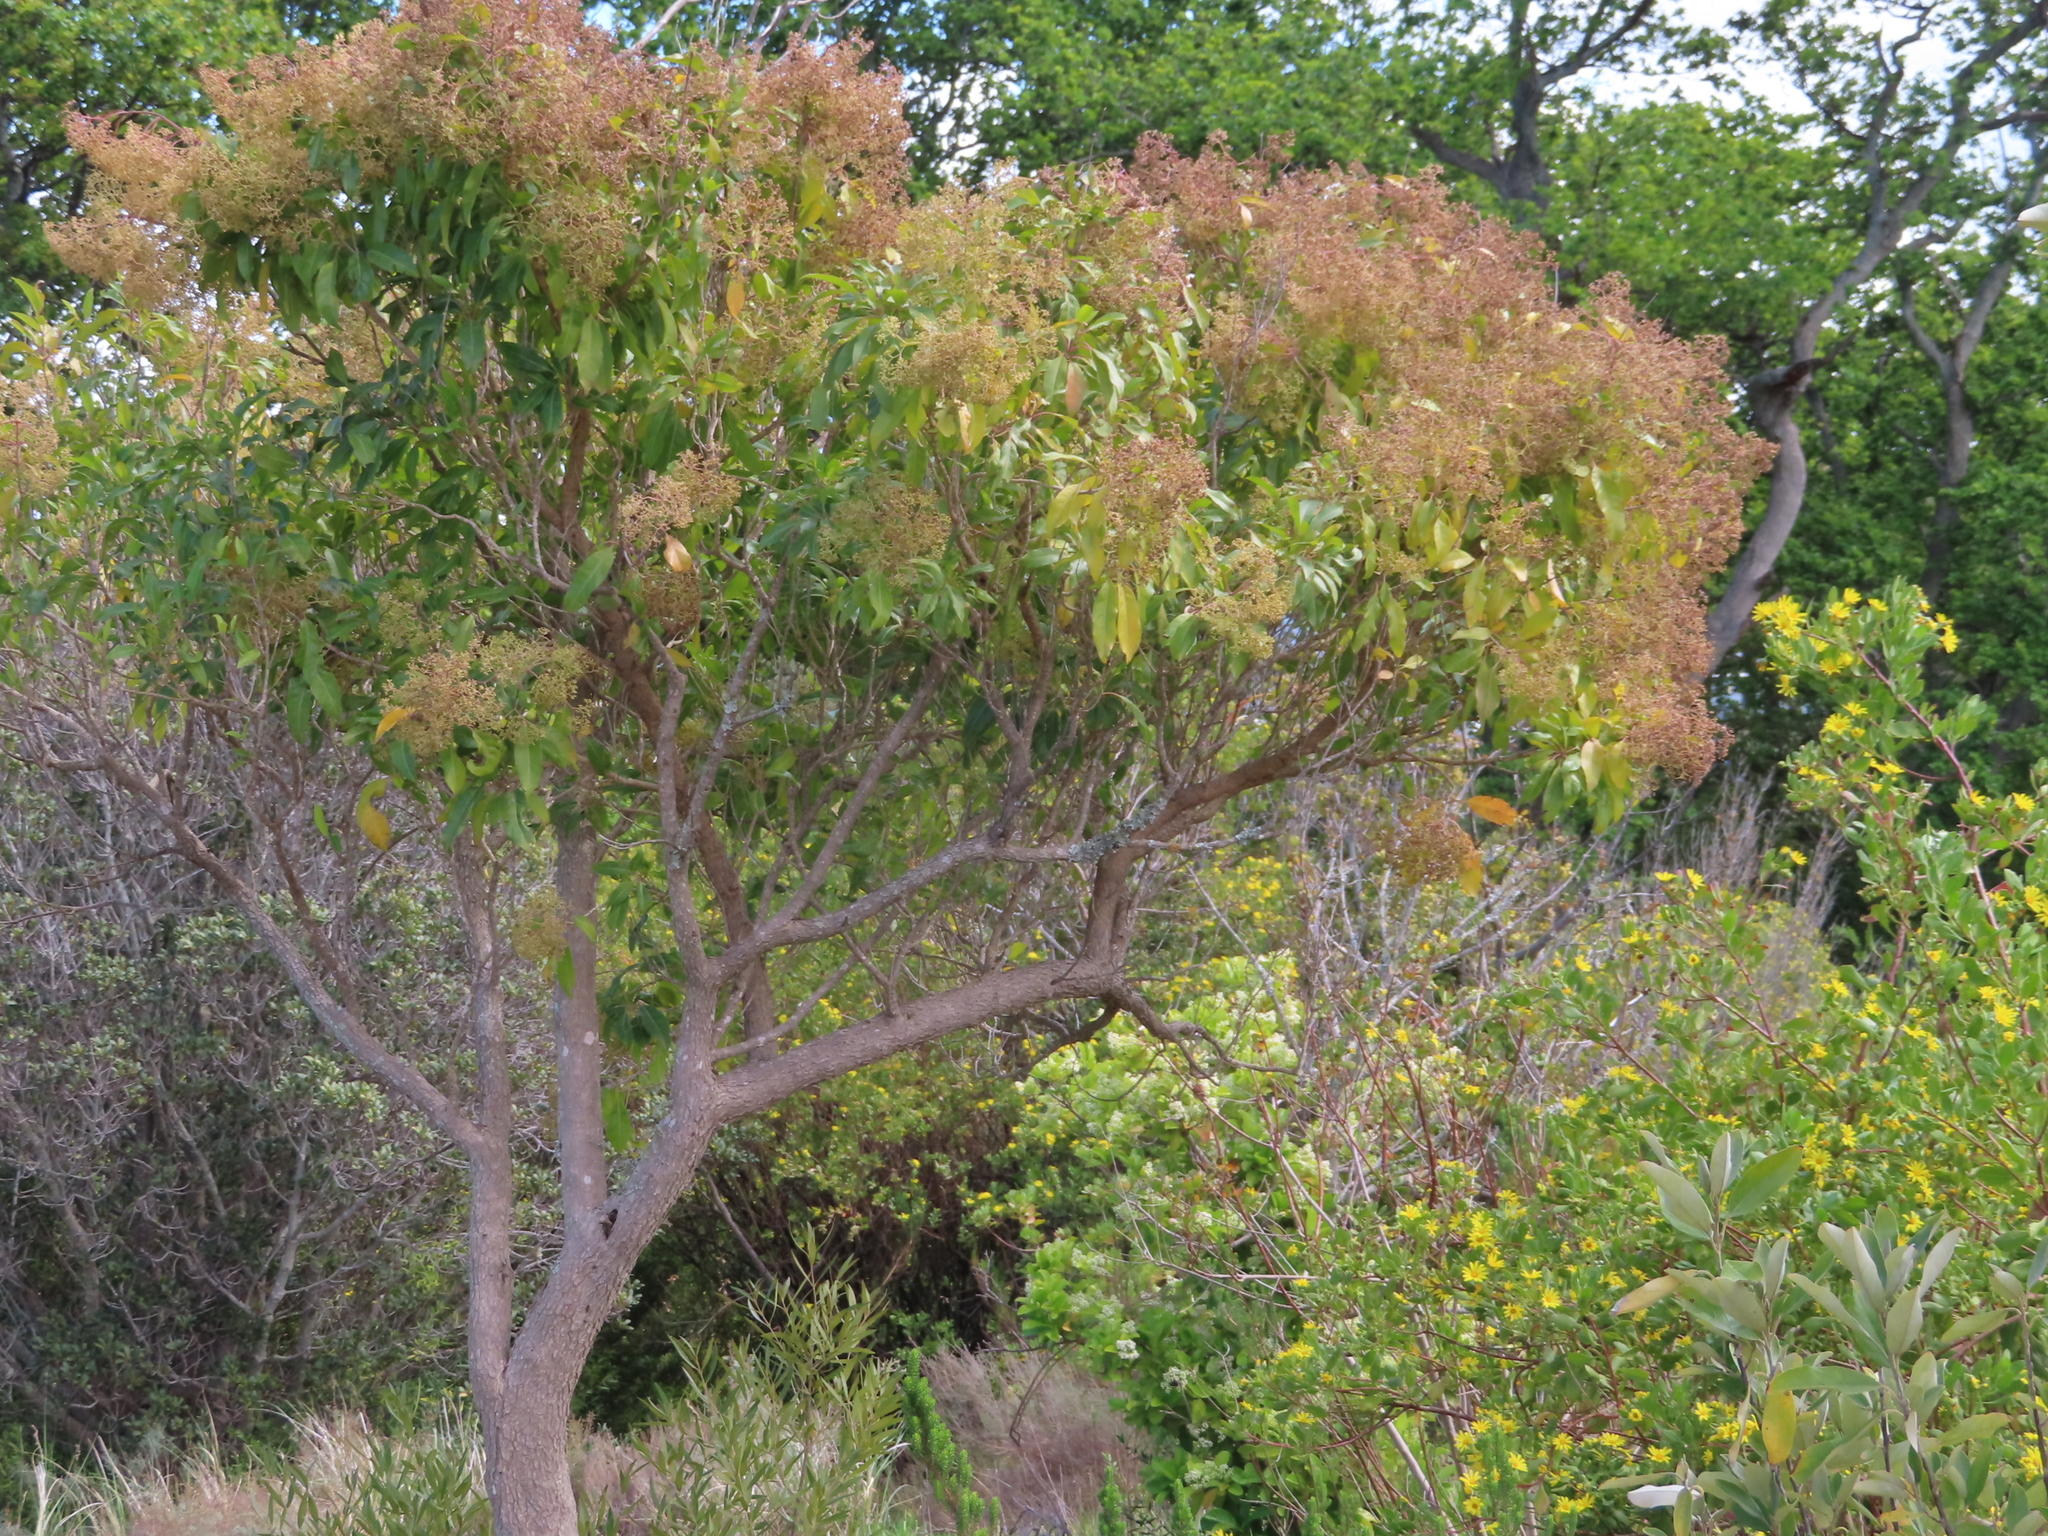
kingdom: Plantae
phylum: Tracheophyta
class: Magnoliopsida
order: Lamiales
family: Stilbaceae
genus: Nuxia
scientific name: Nuxia floribunda
